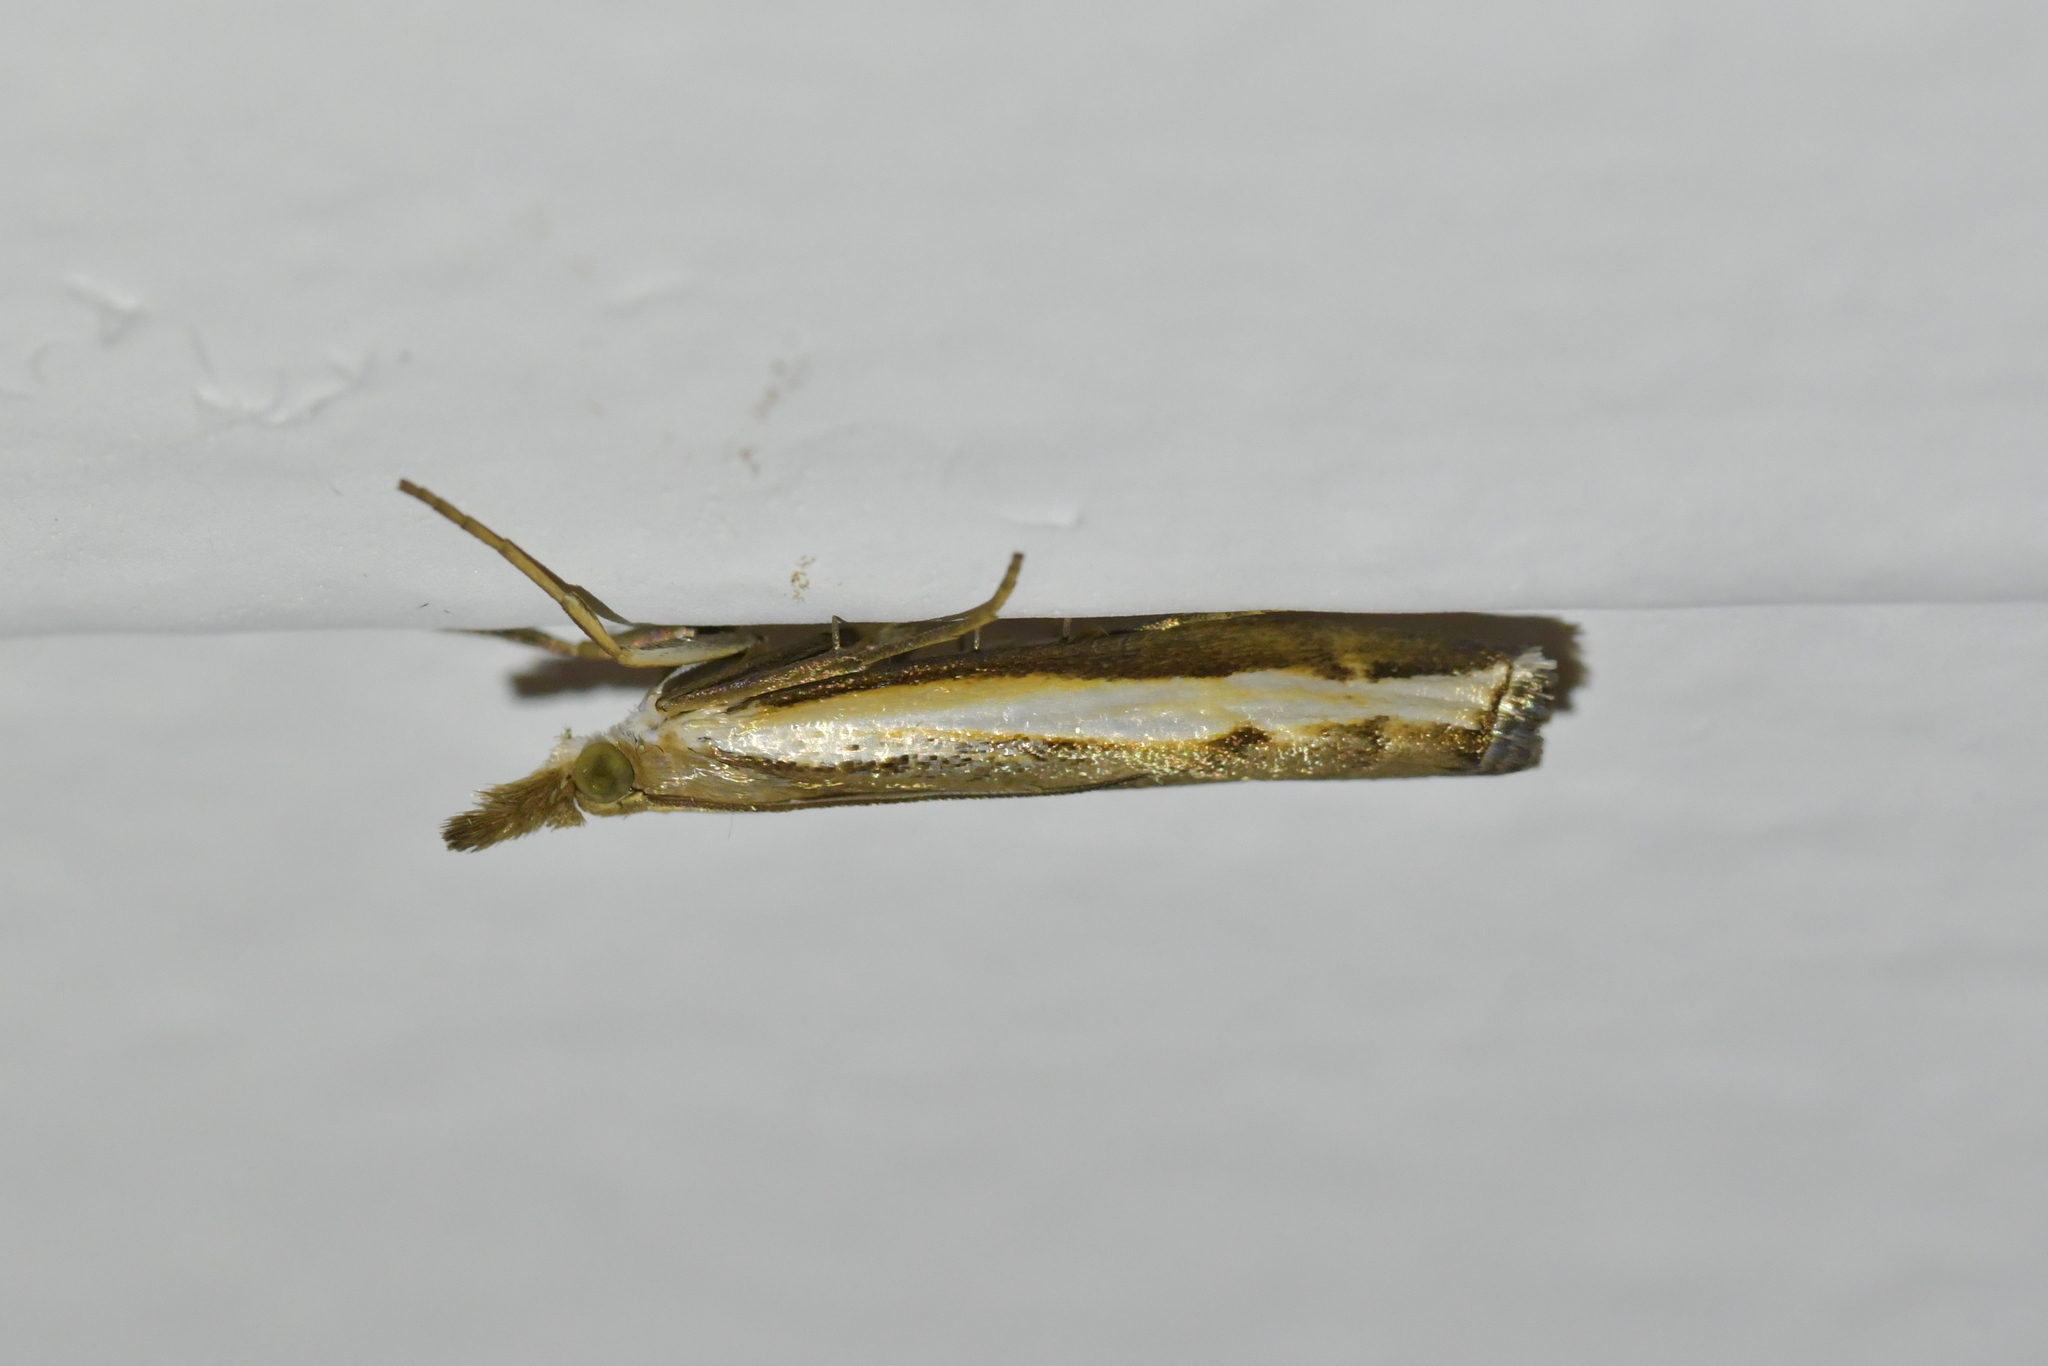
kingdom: Animalia
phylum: Arthropoda
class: Insecta
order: Lepidoptera
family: Crambidae
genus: Orocrambus
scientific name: Orocrambus flexuosellus
